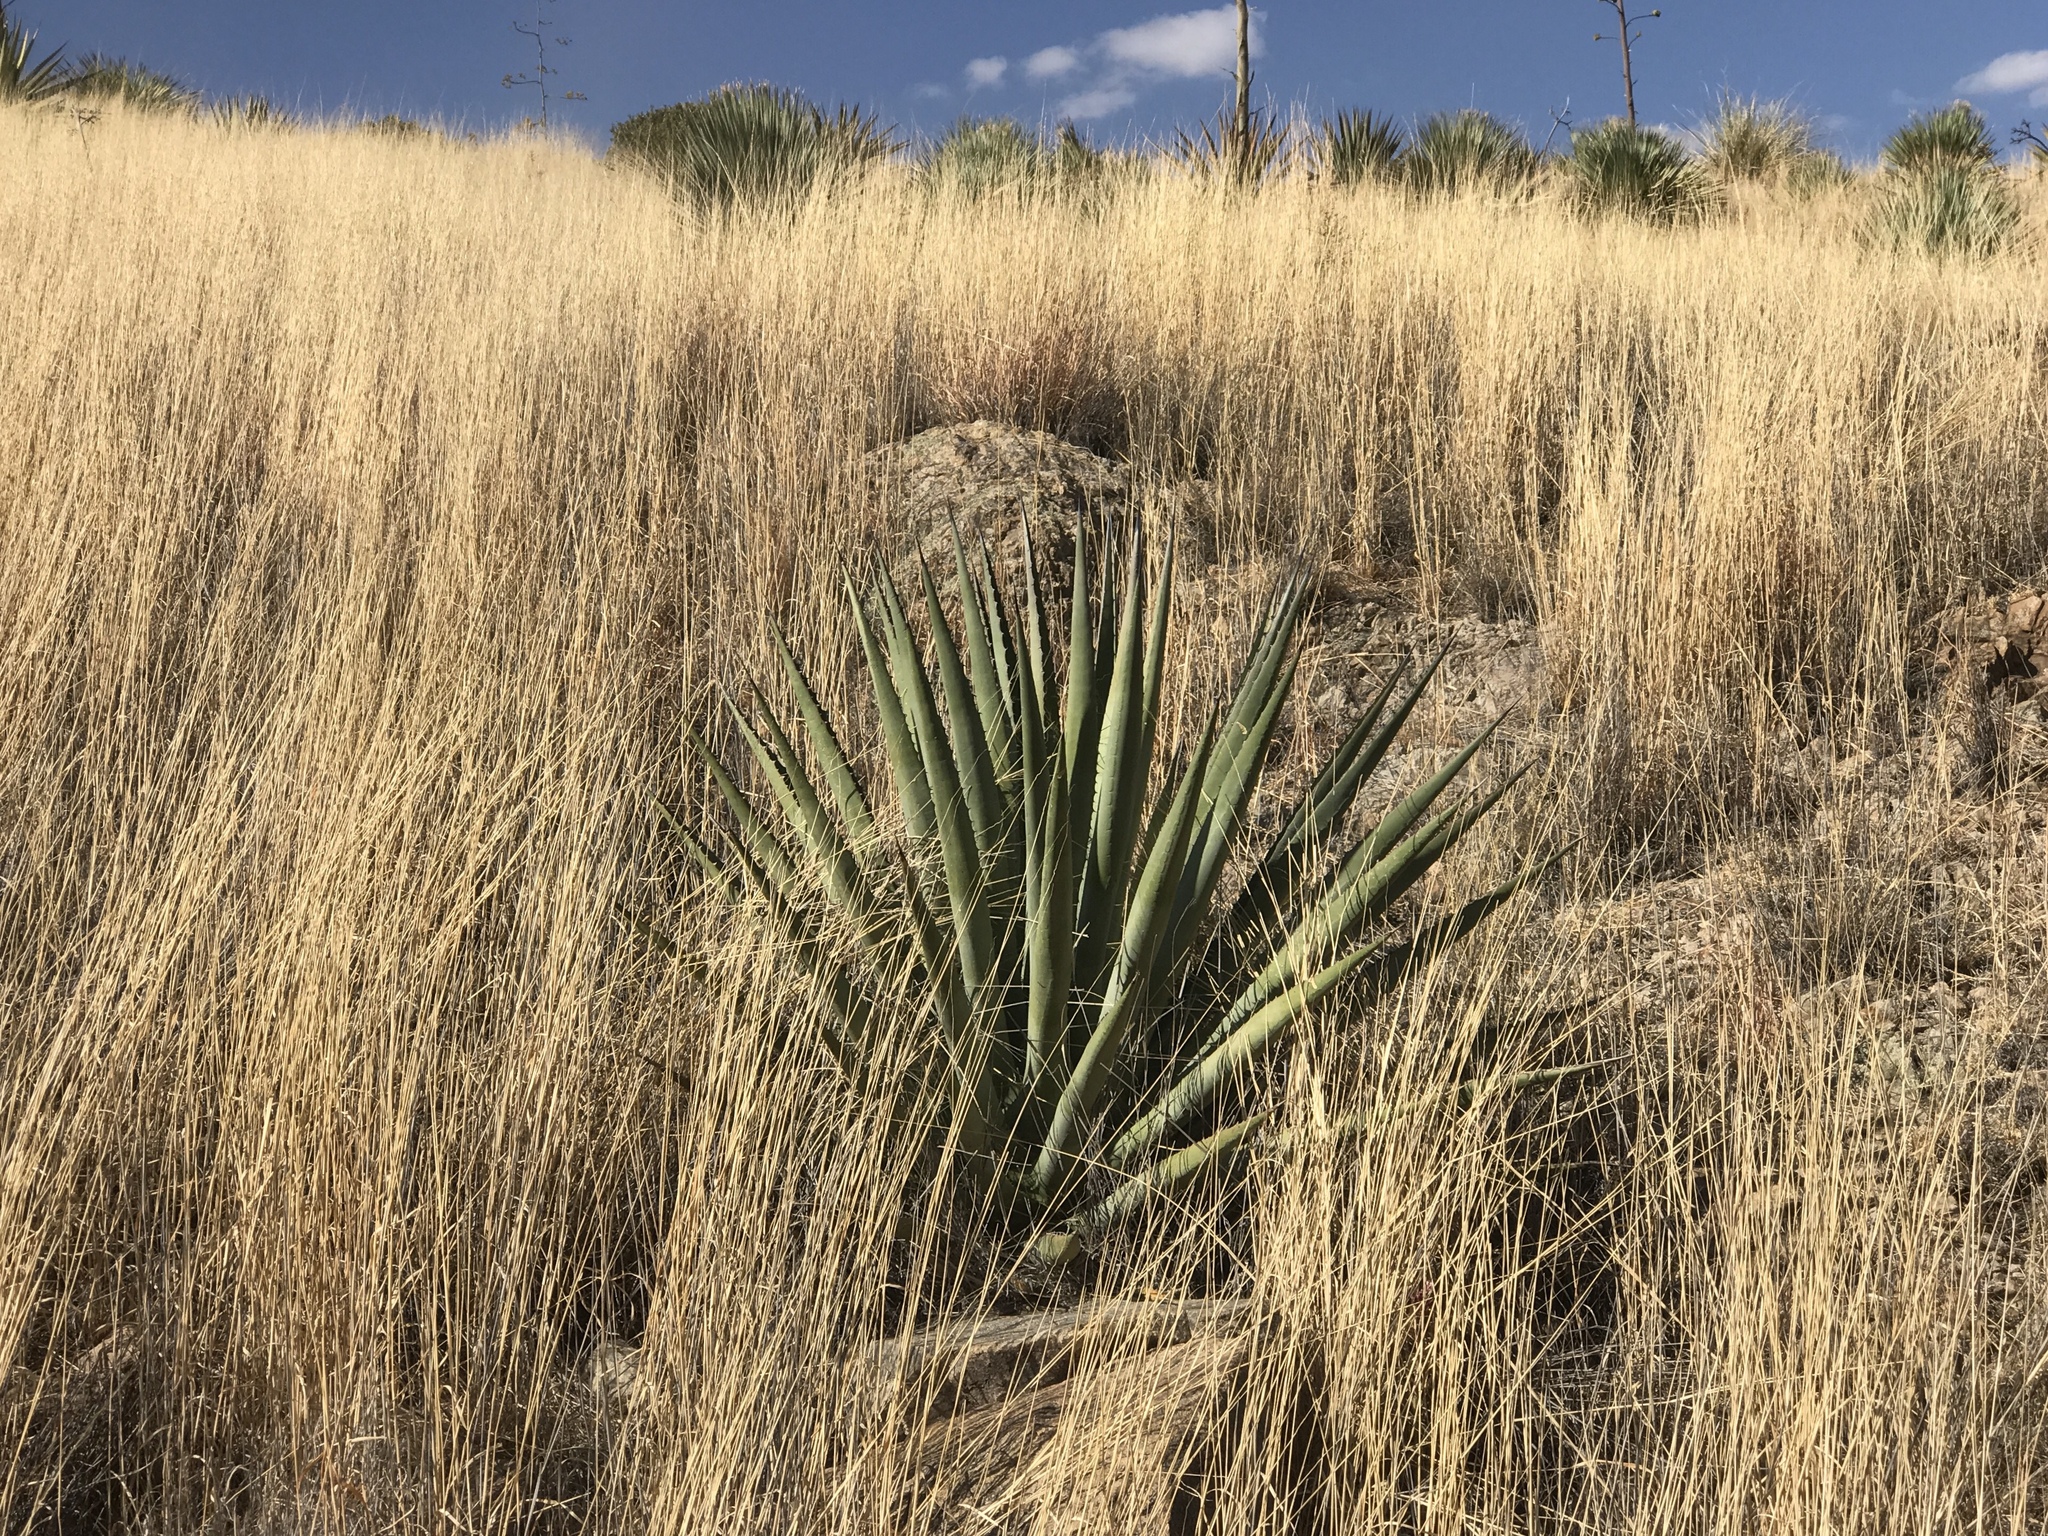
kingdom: Plantae
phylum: Tracheophyta
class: Liliopsida
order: Asparagales
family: Asparagaceae
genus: Agave
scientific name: Agave palmeri
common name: Palmer agave
